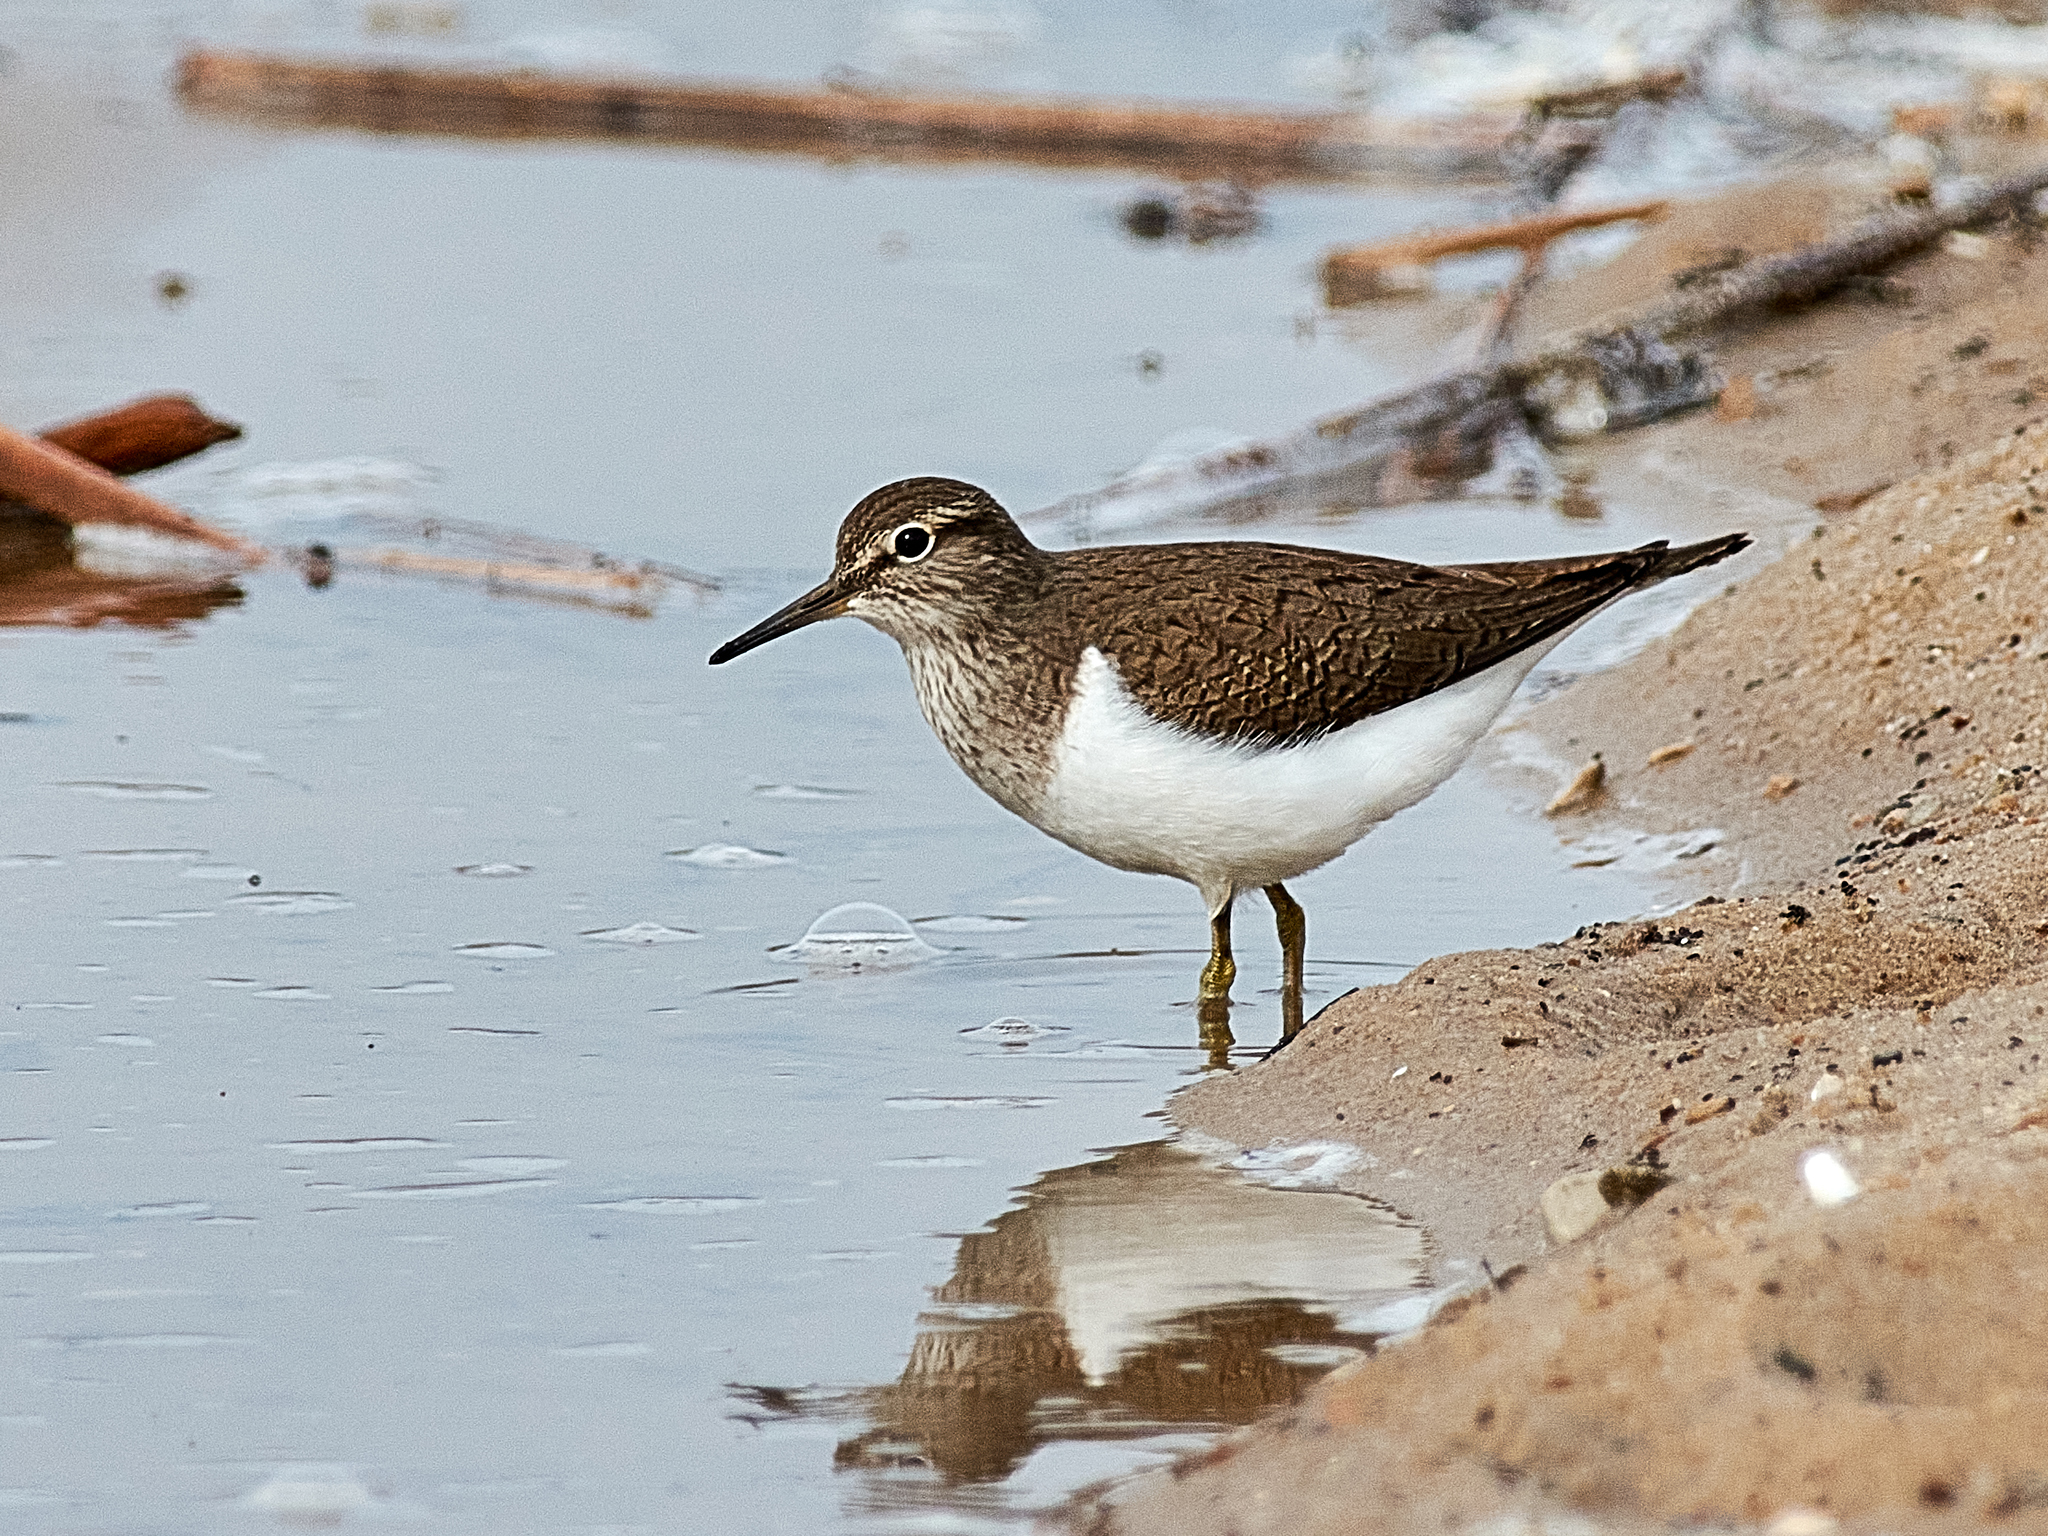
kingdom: Animalia
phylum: Chordata
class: Aves
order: Charadriiformes
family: Scolopacidae
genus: Actitis
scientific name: Actitis hypoleucos
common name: Common sandpiper
